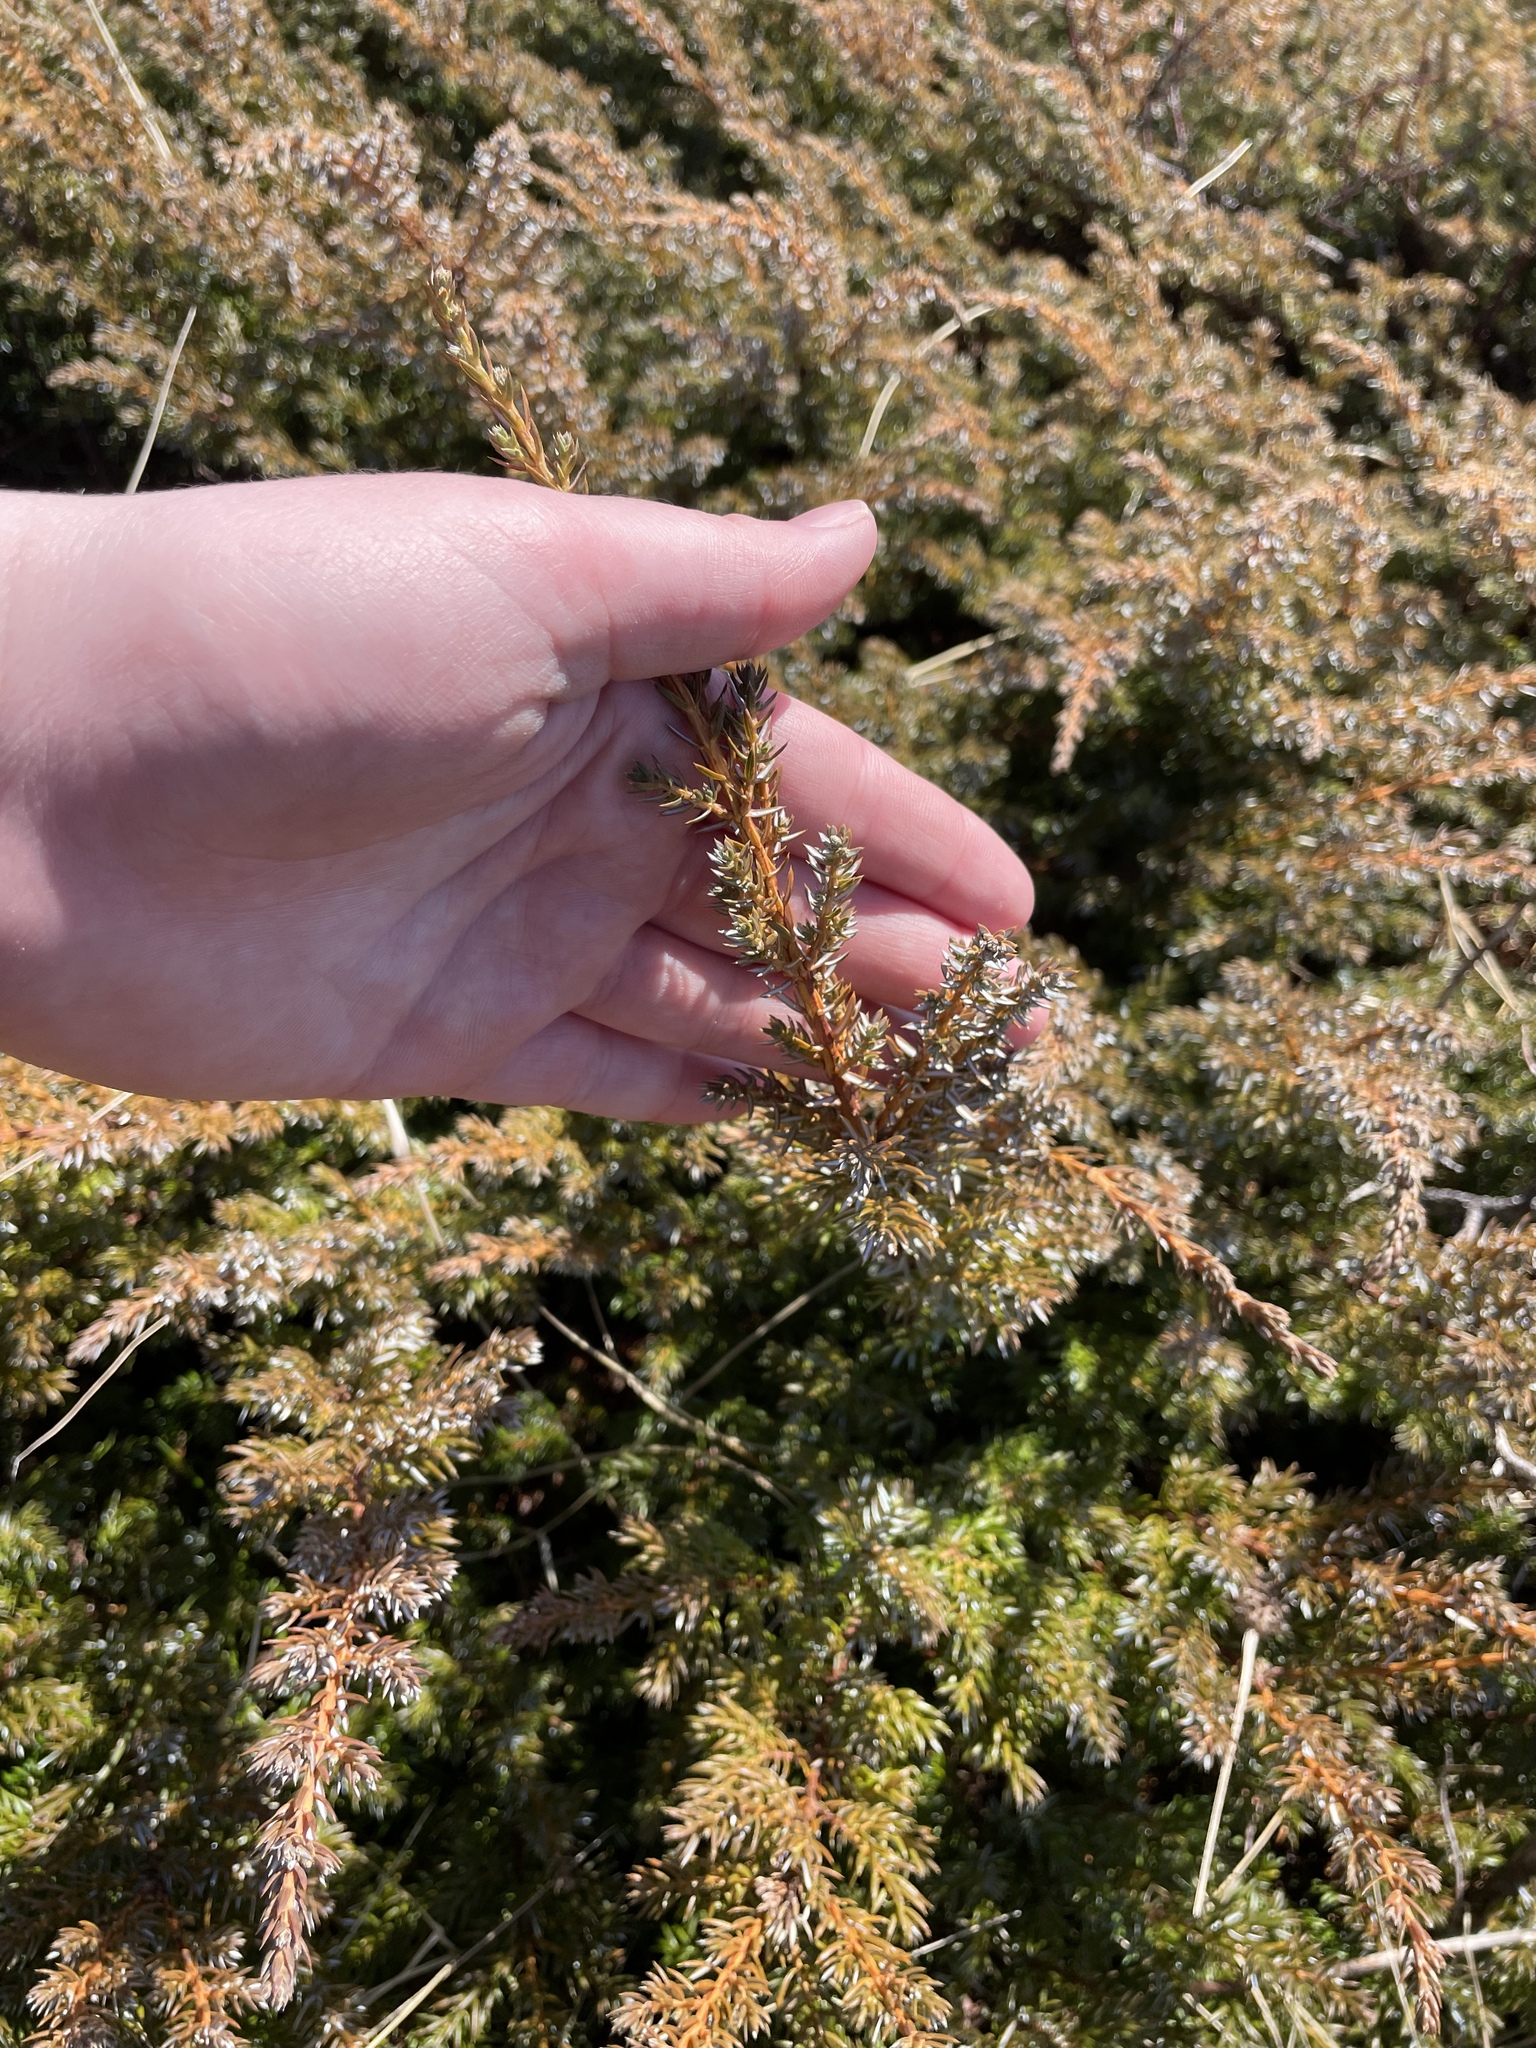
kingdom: Plantae
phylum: Tracheophyta
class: Pinopsida
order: Pinales
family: Cupressaceae
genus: Juniperus
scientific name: Juniperus communis
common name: Common juniper
